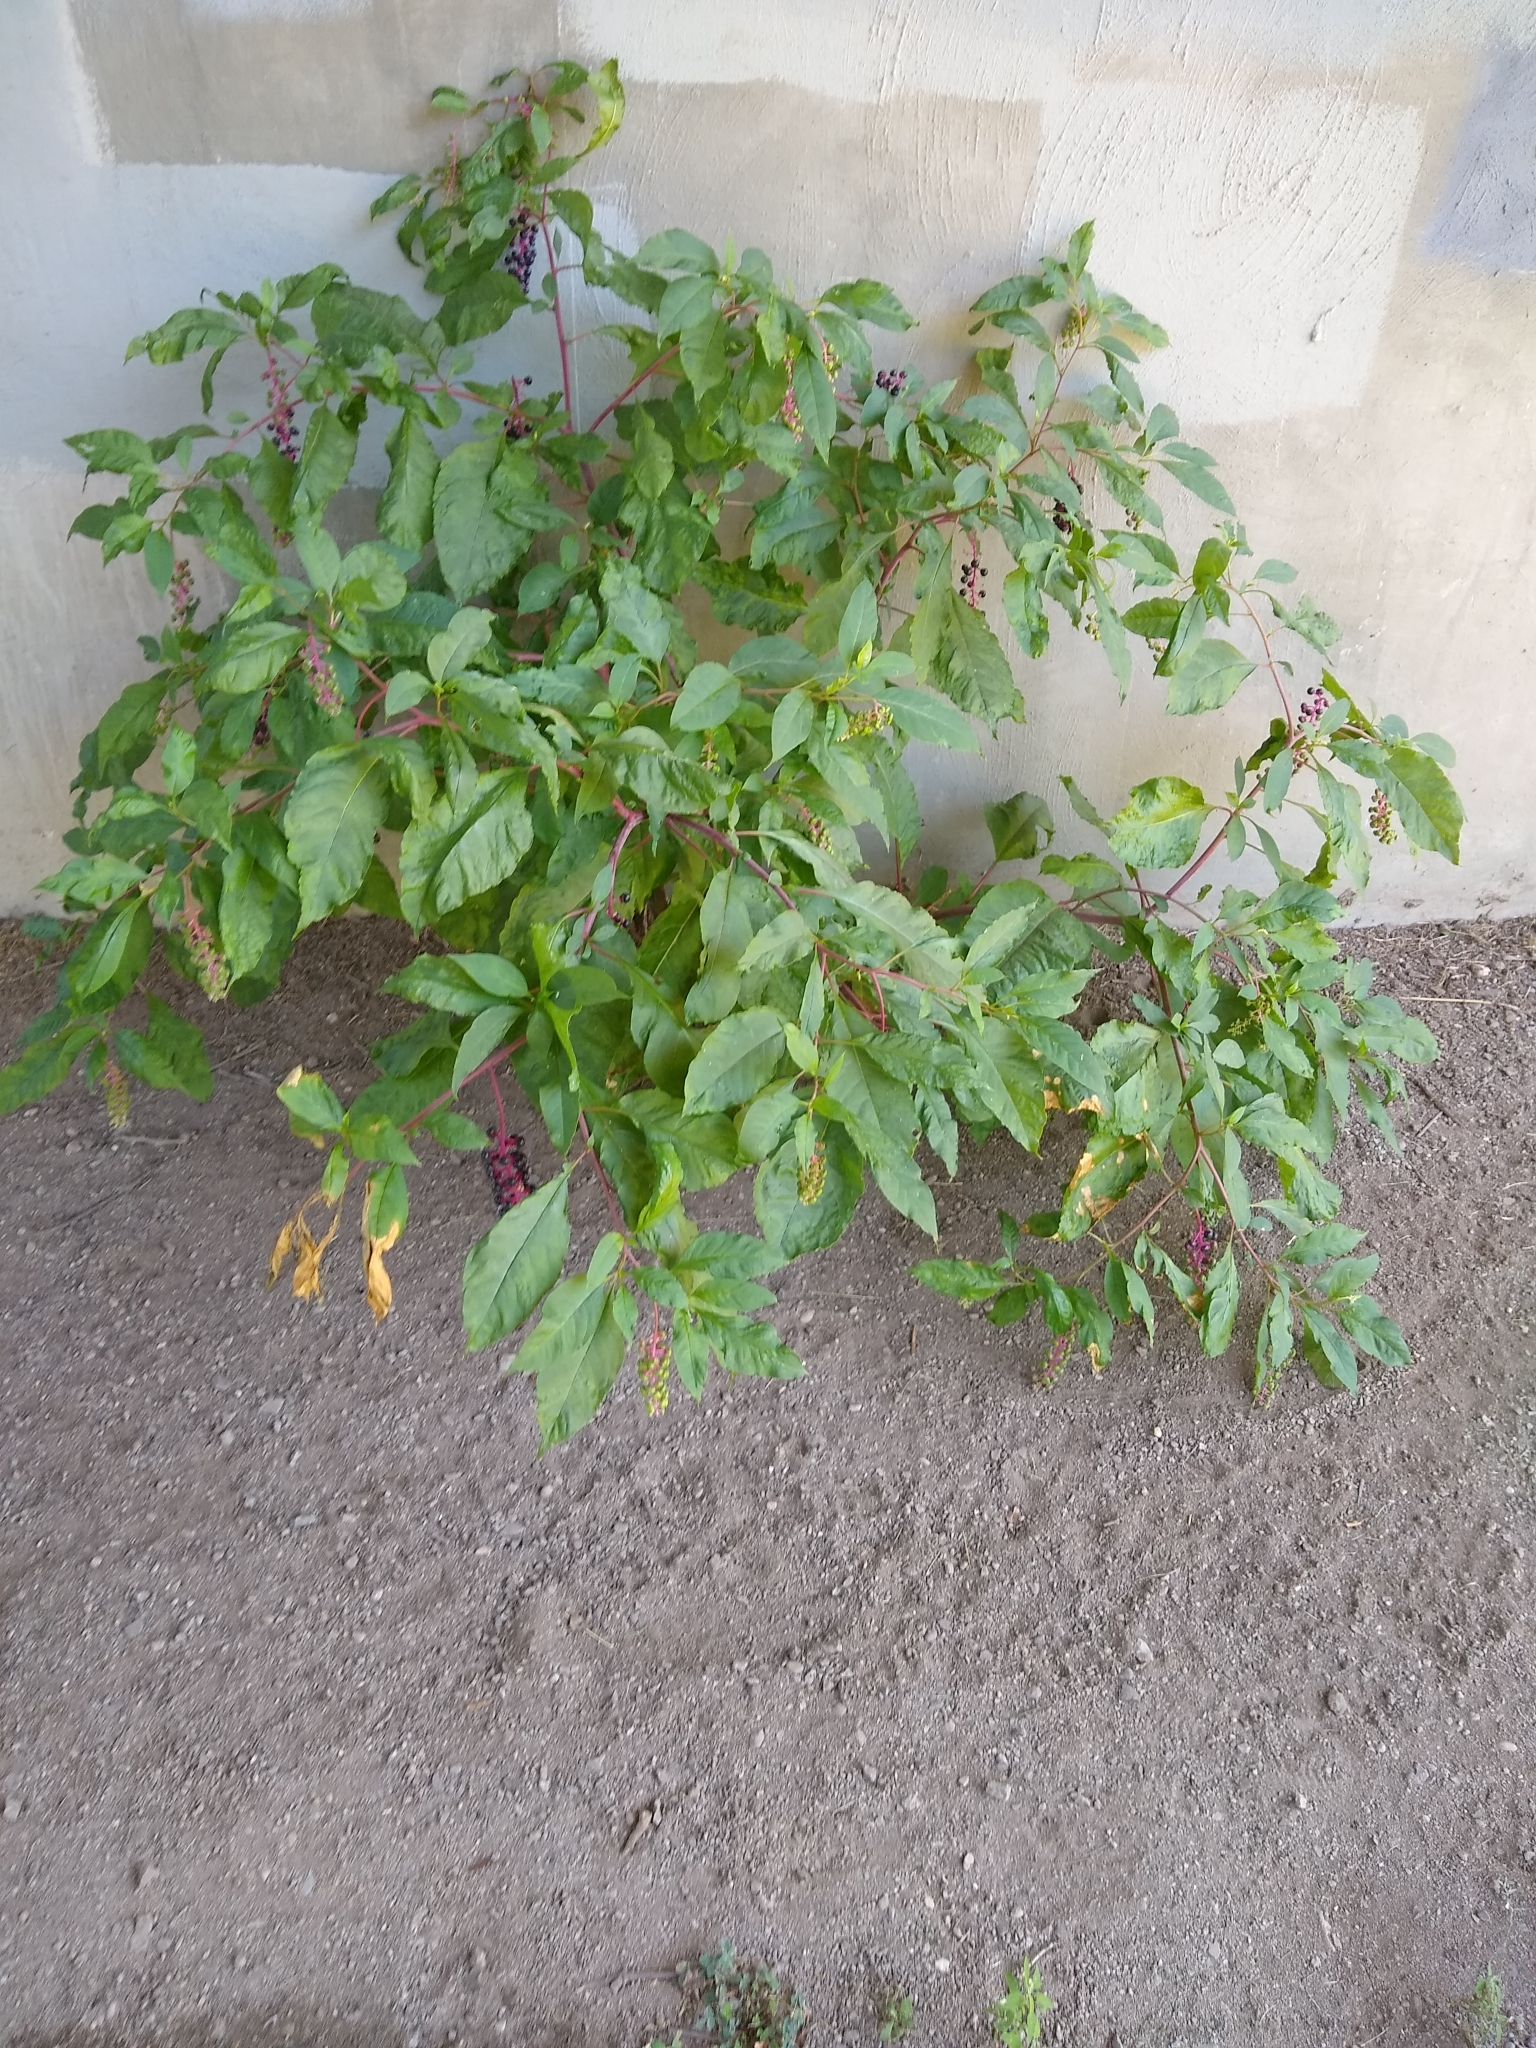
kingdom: Plantae
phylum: Tracheophyta
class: Magnoliopsida
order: Caryophyllales
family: Phytolaccaceae
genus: Phytolacca
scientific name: Phytolacca americana
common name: American pokeweed
